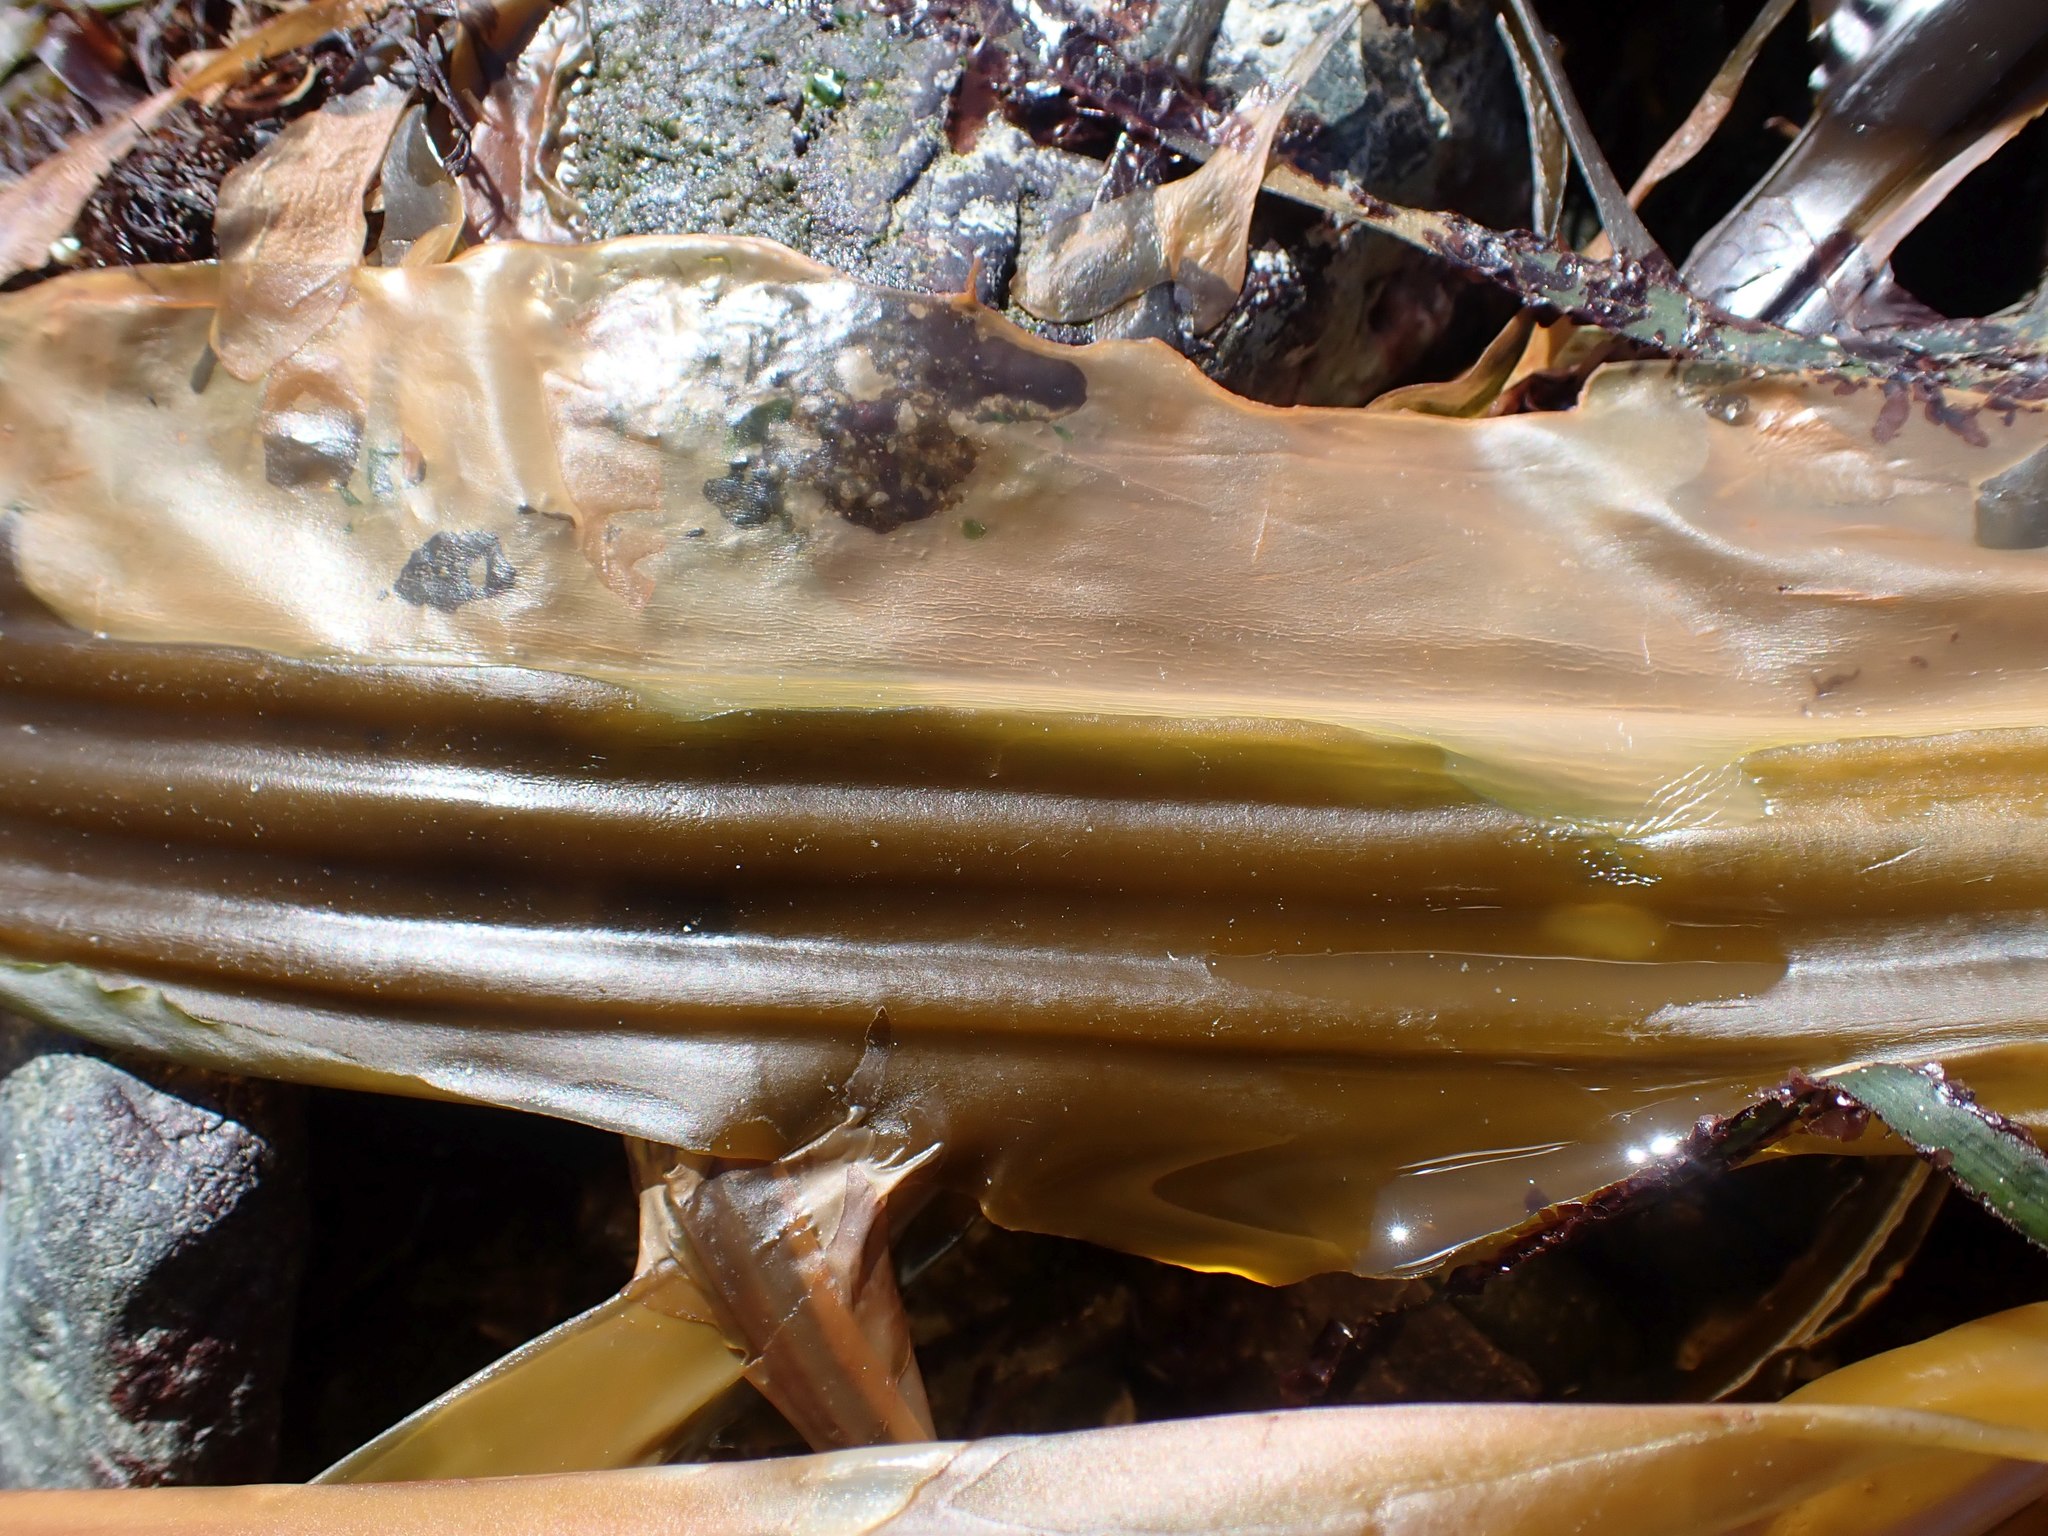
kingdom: Chromista
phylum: Ochrophyta
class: Phaeophyceae
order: Laminariales
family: Laminariaceae
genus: Cymathaere
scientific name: Cymathaere triplicata
